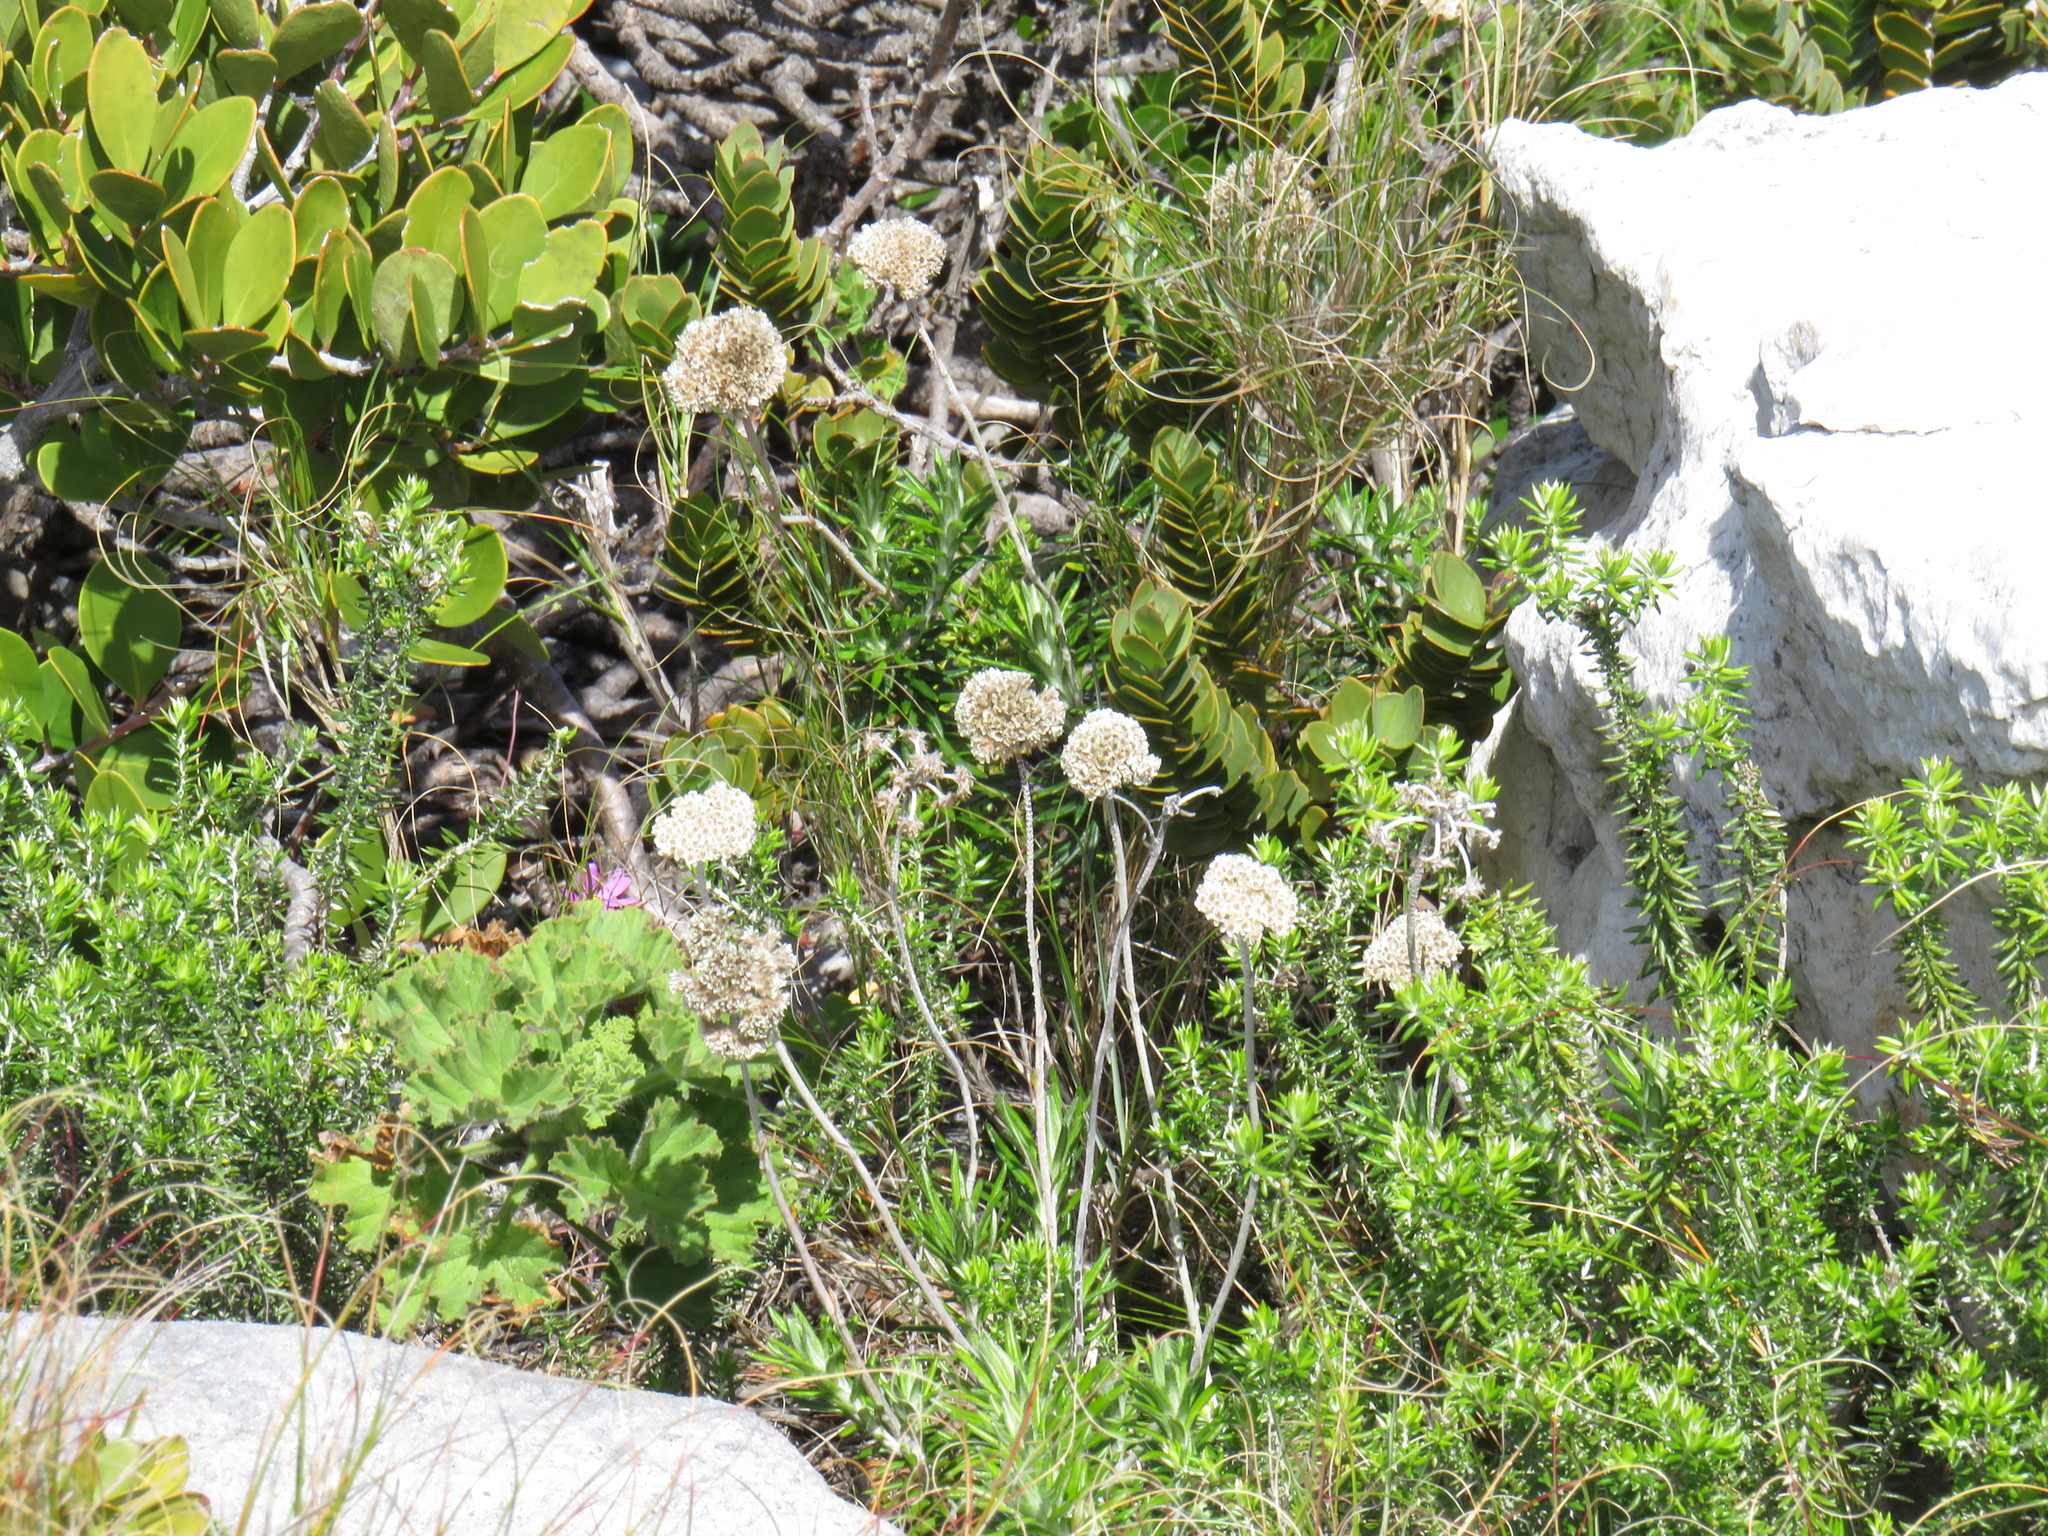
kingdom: Plantae
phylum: Tracheophyta
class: Magnoliopsida
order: Asterales
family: Asteraceae
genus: Anaxeton
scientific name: Anaxeton laeve
